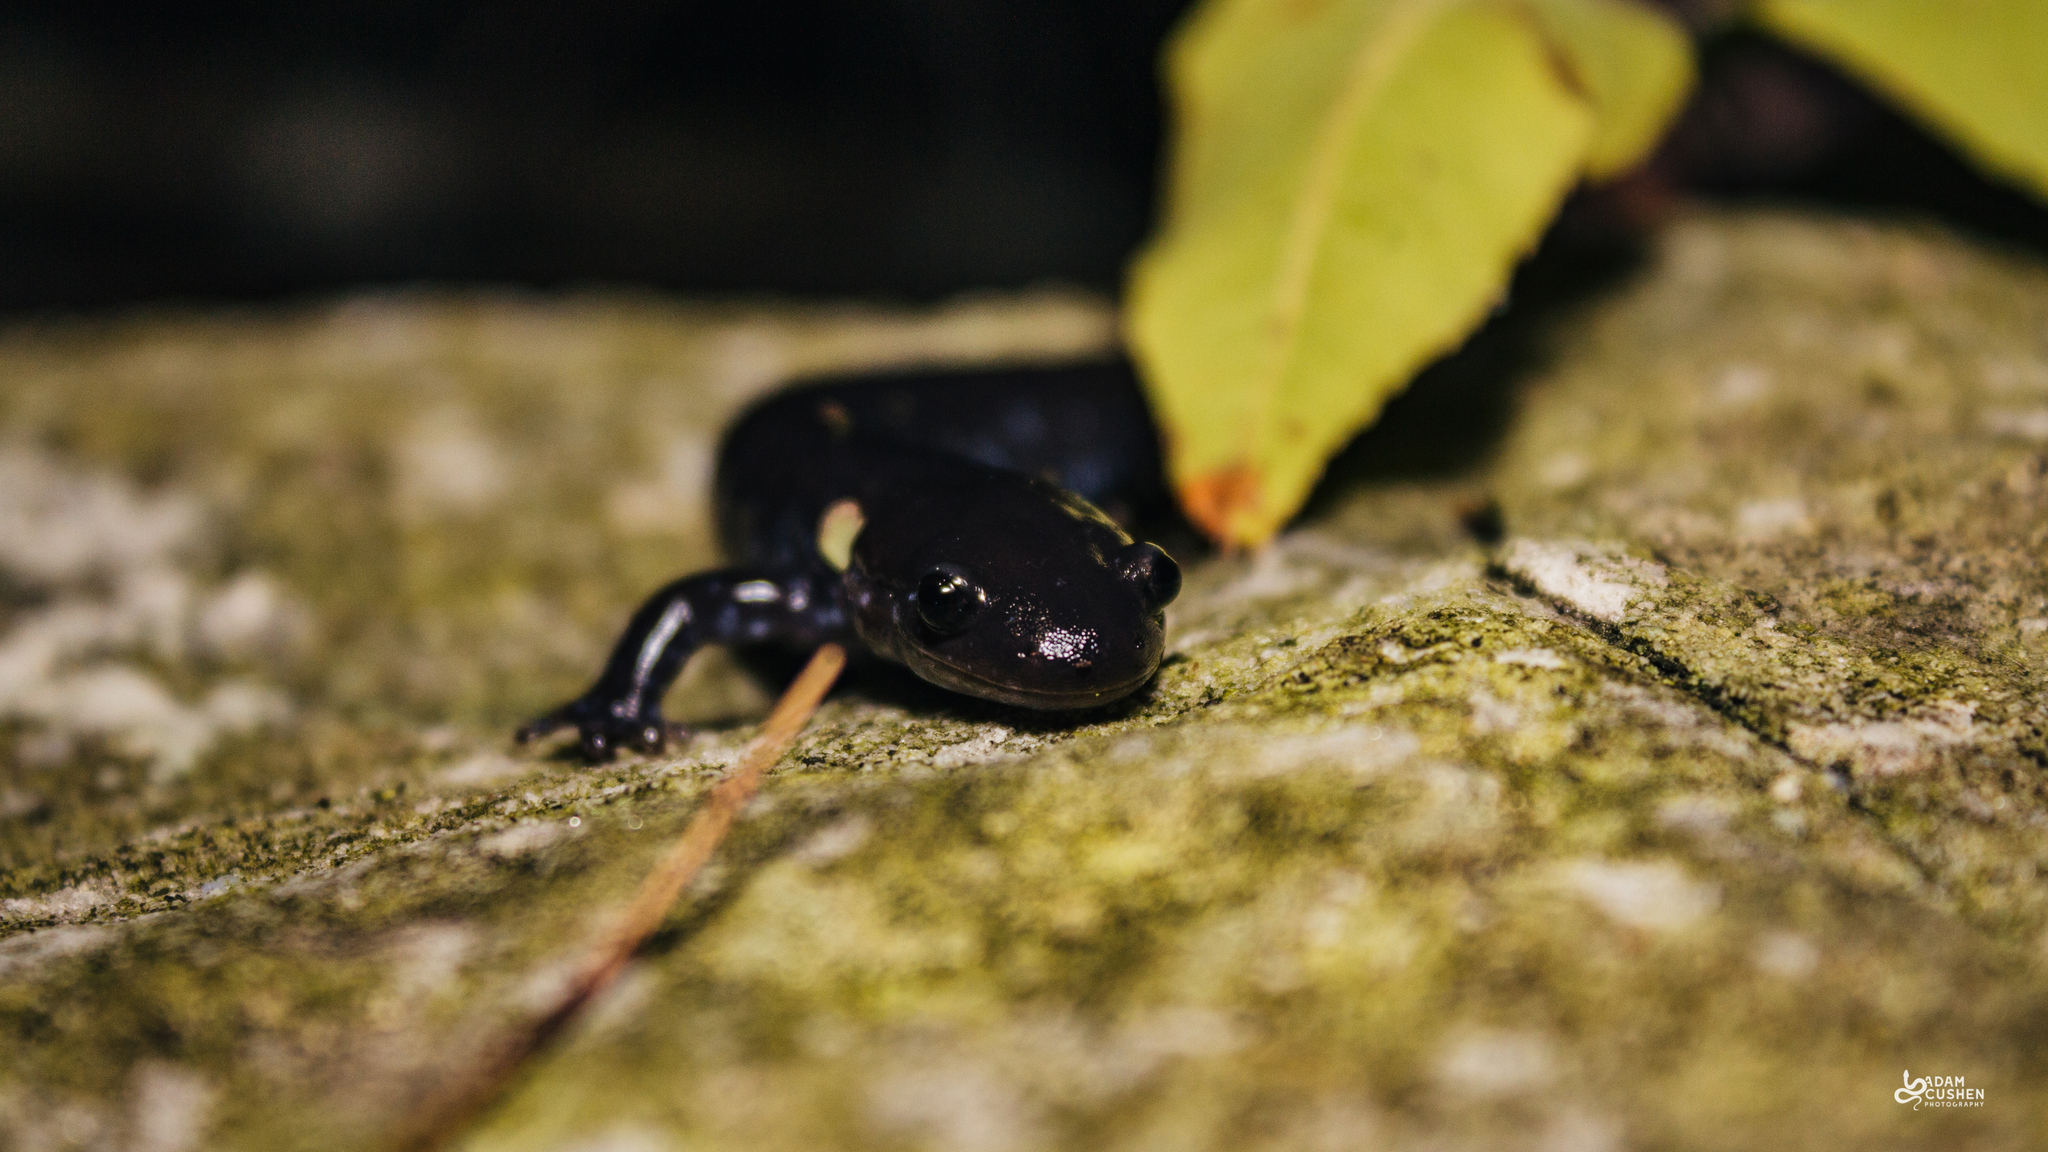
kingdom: Animalia
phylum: Chordata
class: Amphibia
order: Caudata
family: Ambystomatidae
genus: Ambystoma
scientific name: Ambystoma laterale
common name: Blue-spotted salamander
